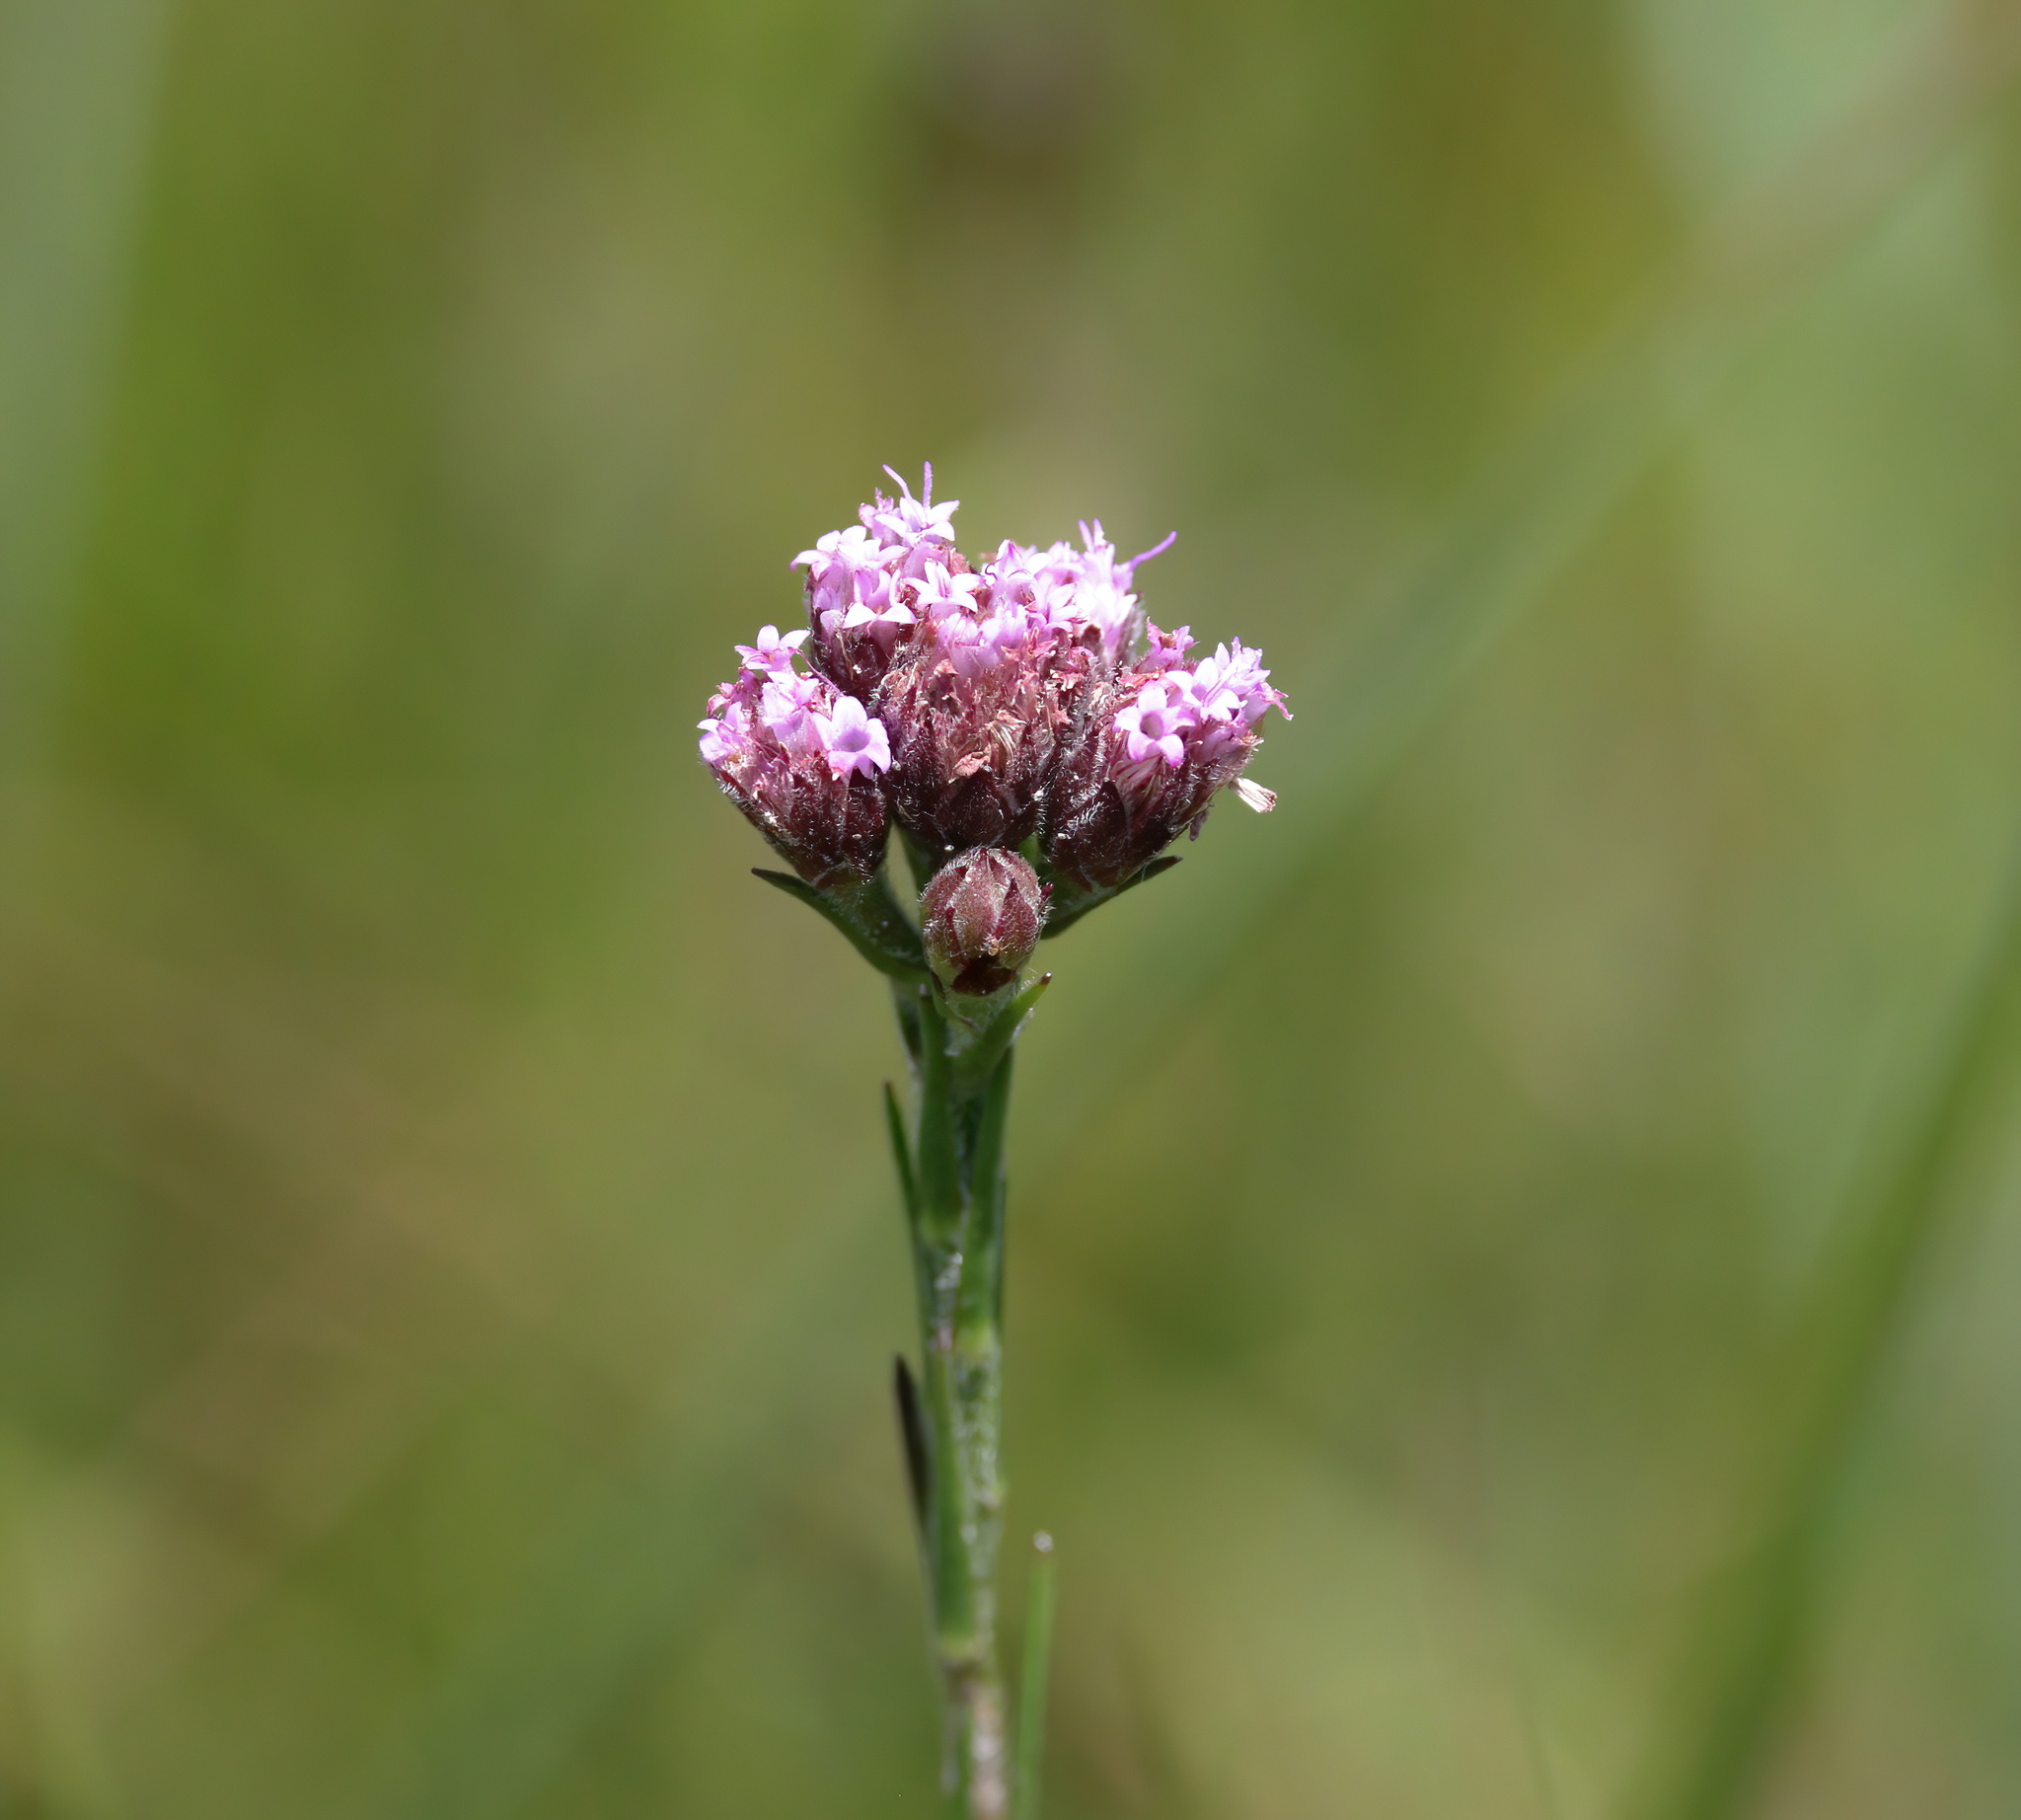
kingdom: Plantae
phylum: Tracheophyta
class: Magnoliopsida
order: Asterales
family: Asteraceae
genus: Carphephorus
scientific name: Carphephorus pseudoliatris
